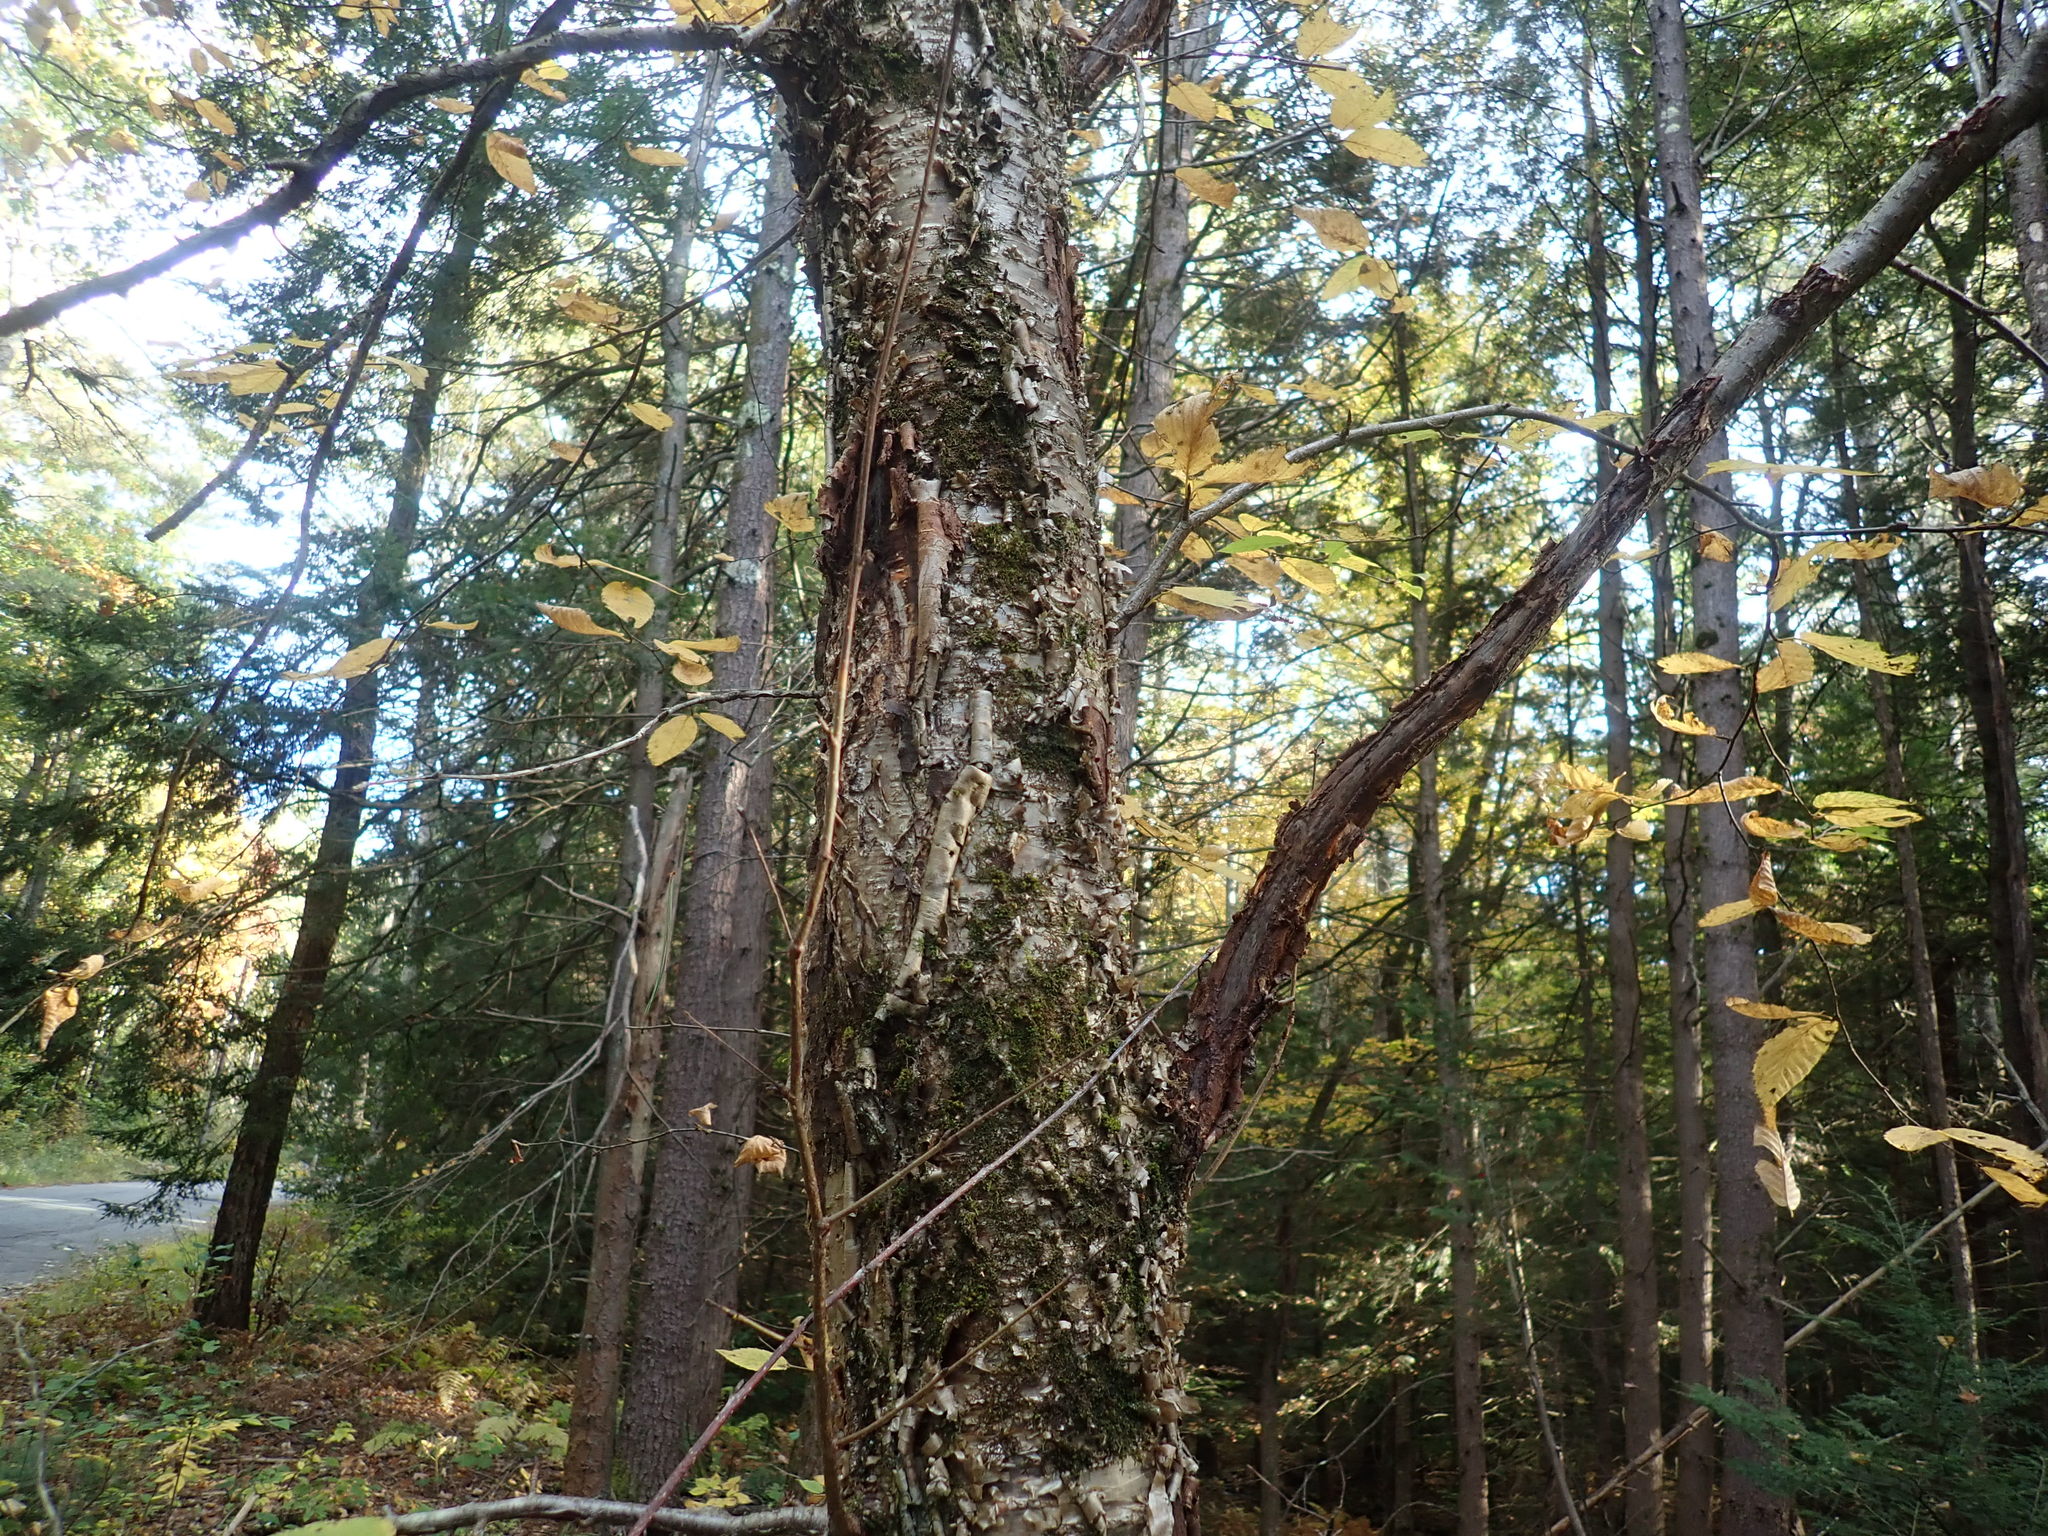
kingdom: Plantae
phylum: Tracheophyta
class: Magnoliopsida
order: Fagales
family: Betulaceae
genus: Betula
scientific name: Betula alleghaniensis
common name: Yellow birch
